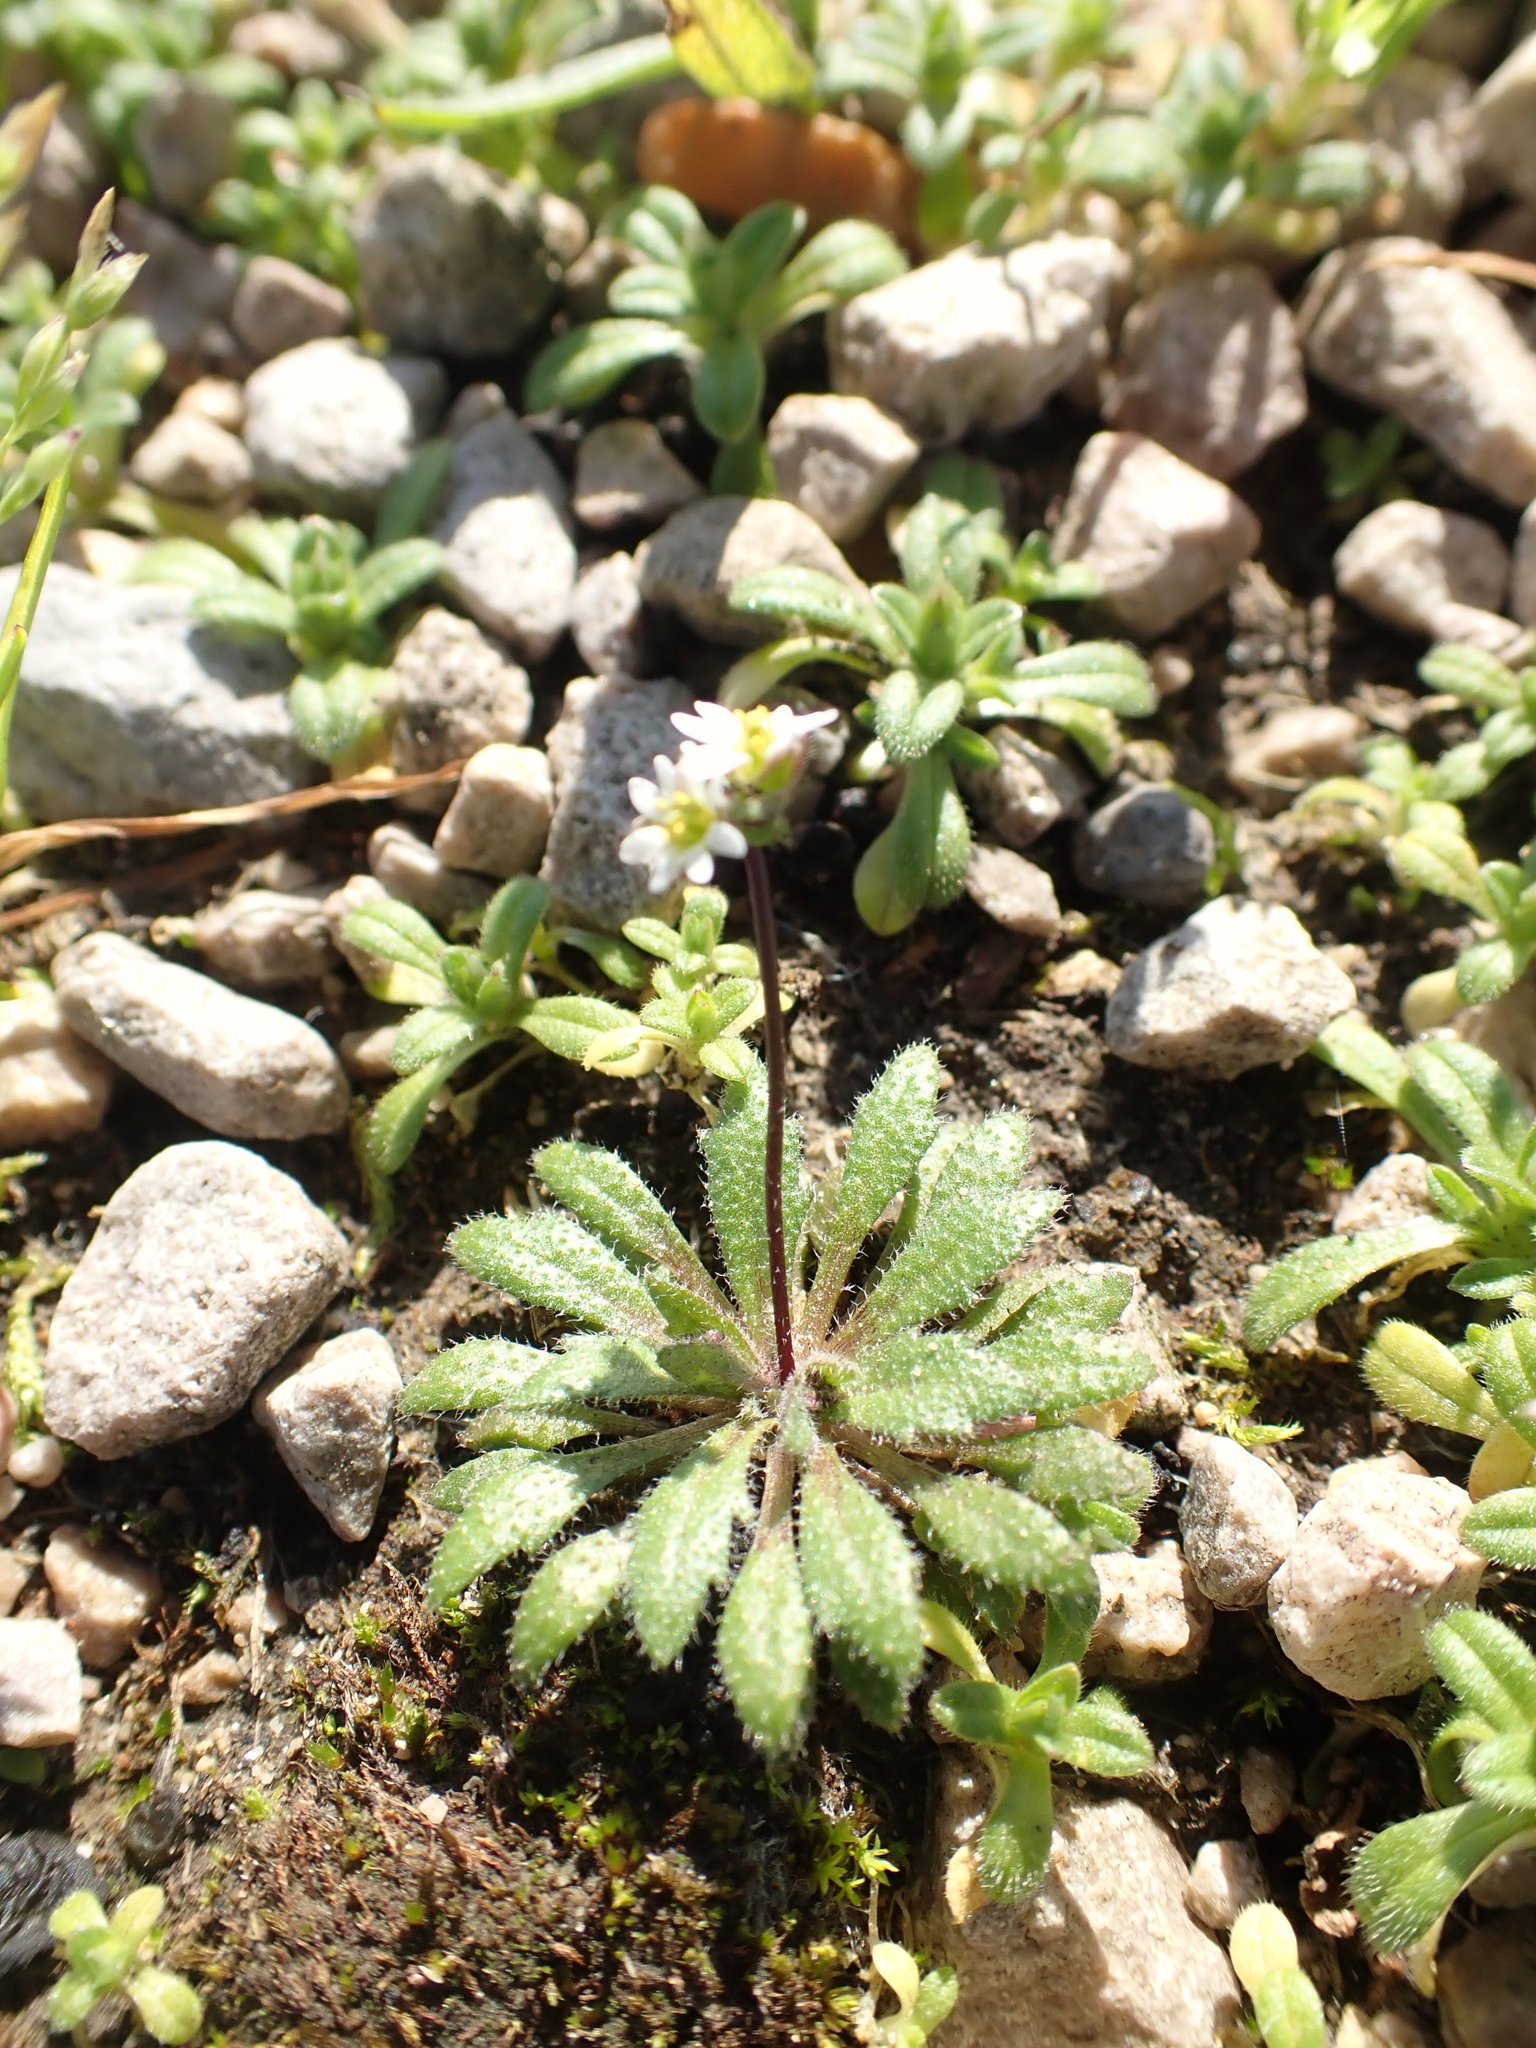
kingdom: Plantae
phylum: Tracheophyta
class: Magnoliopsida
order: Brassicales
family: Brassicaceae
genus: Draba
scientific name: Draba verna
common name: Spring draba
